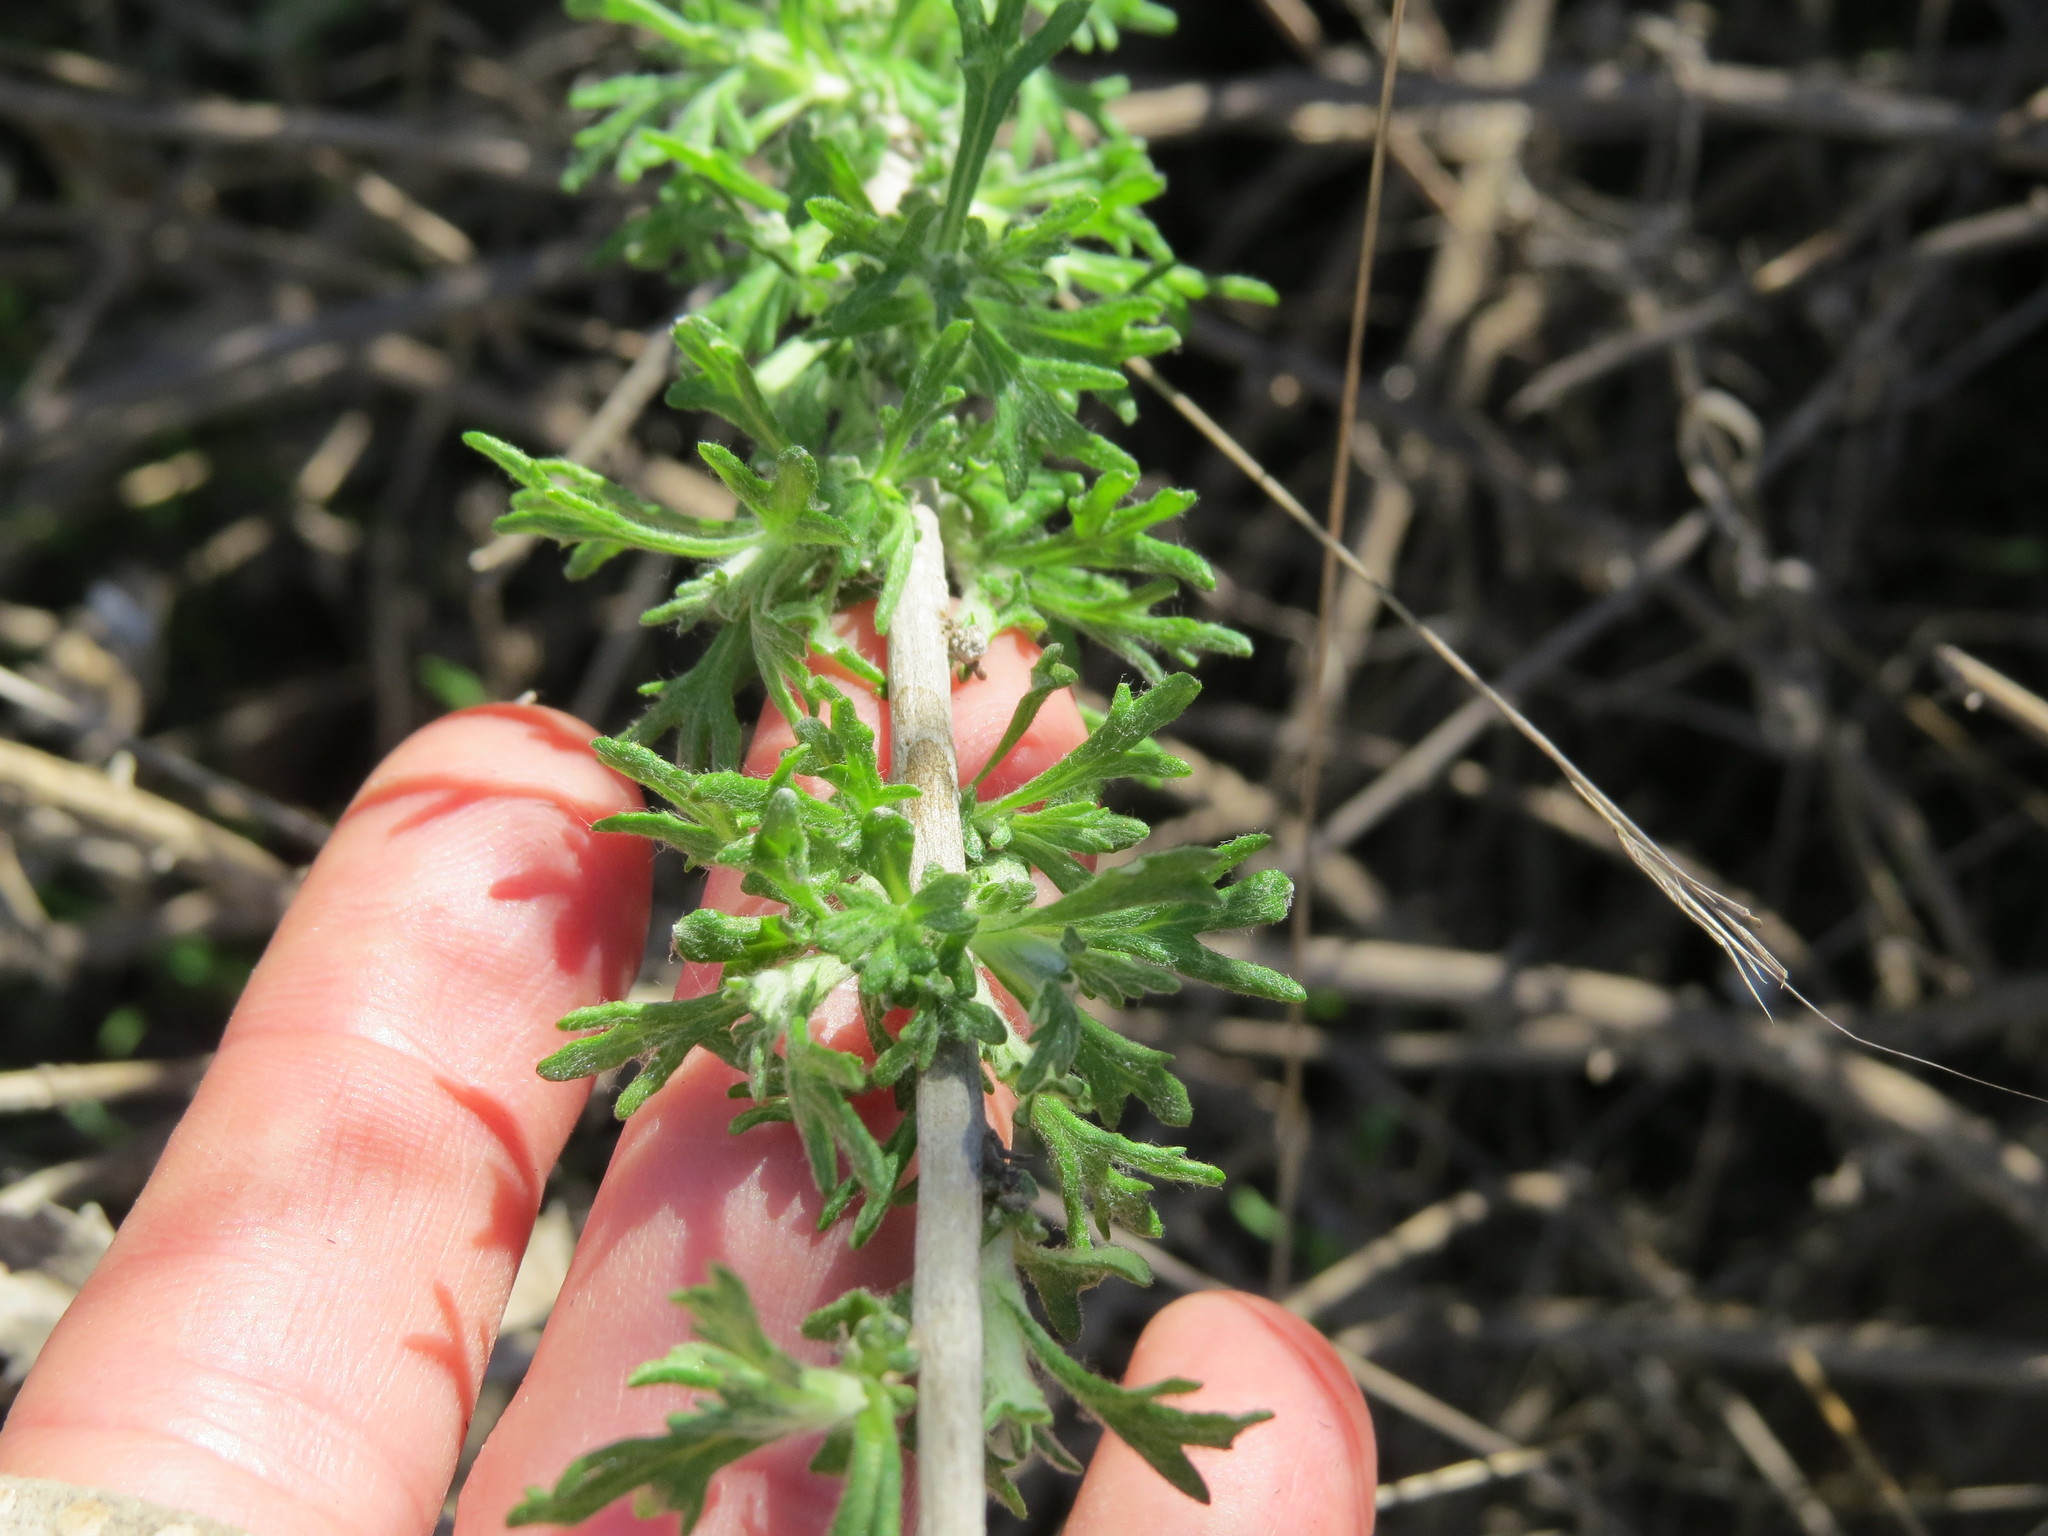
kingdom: Plantae
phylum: Tracheophyta
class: Magnoliopsida
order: Asterales
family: Asteraceae
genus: Eriophyllum
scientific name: Eriophyllum confertiflorum
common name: Golden-yarrow
